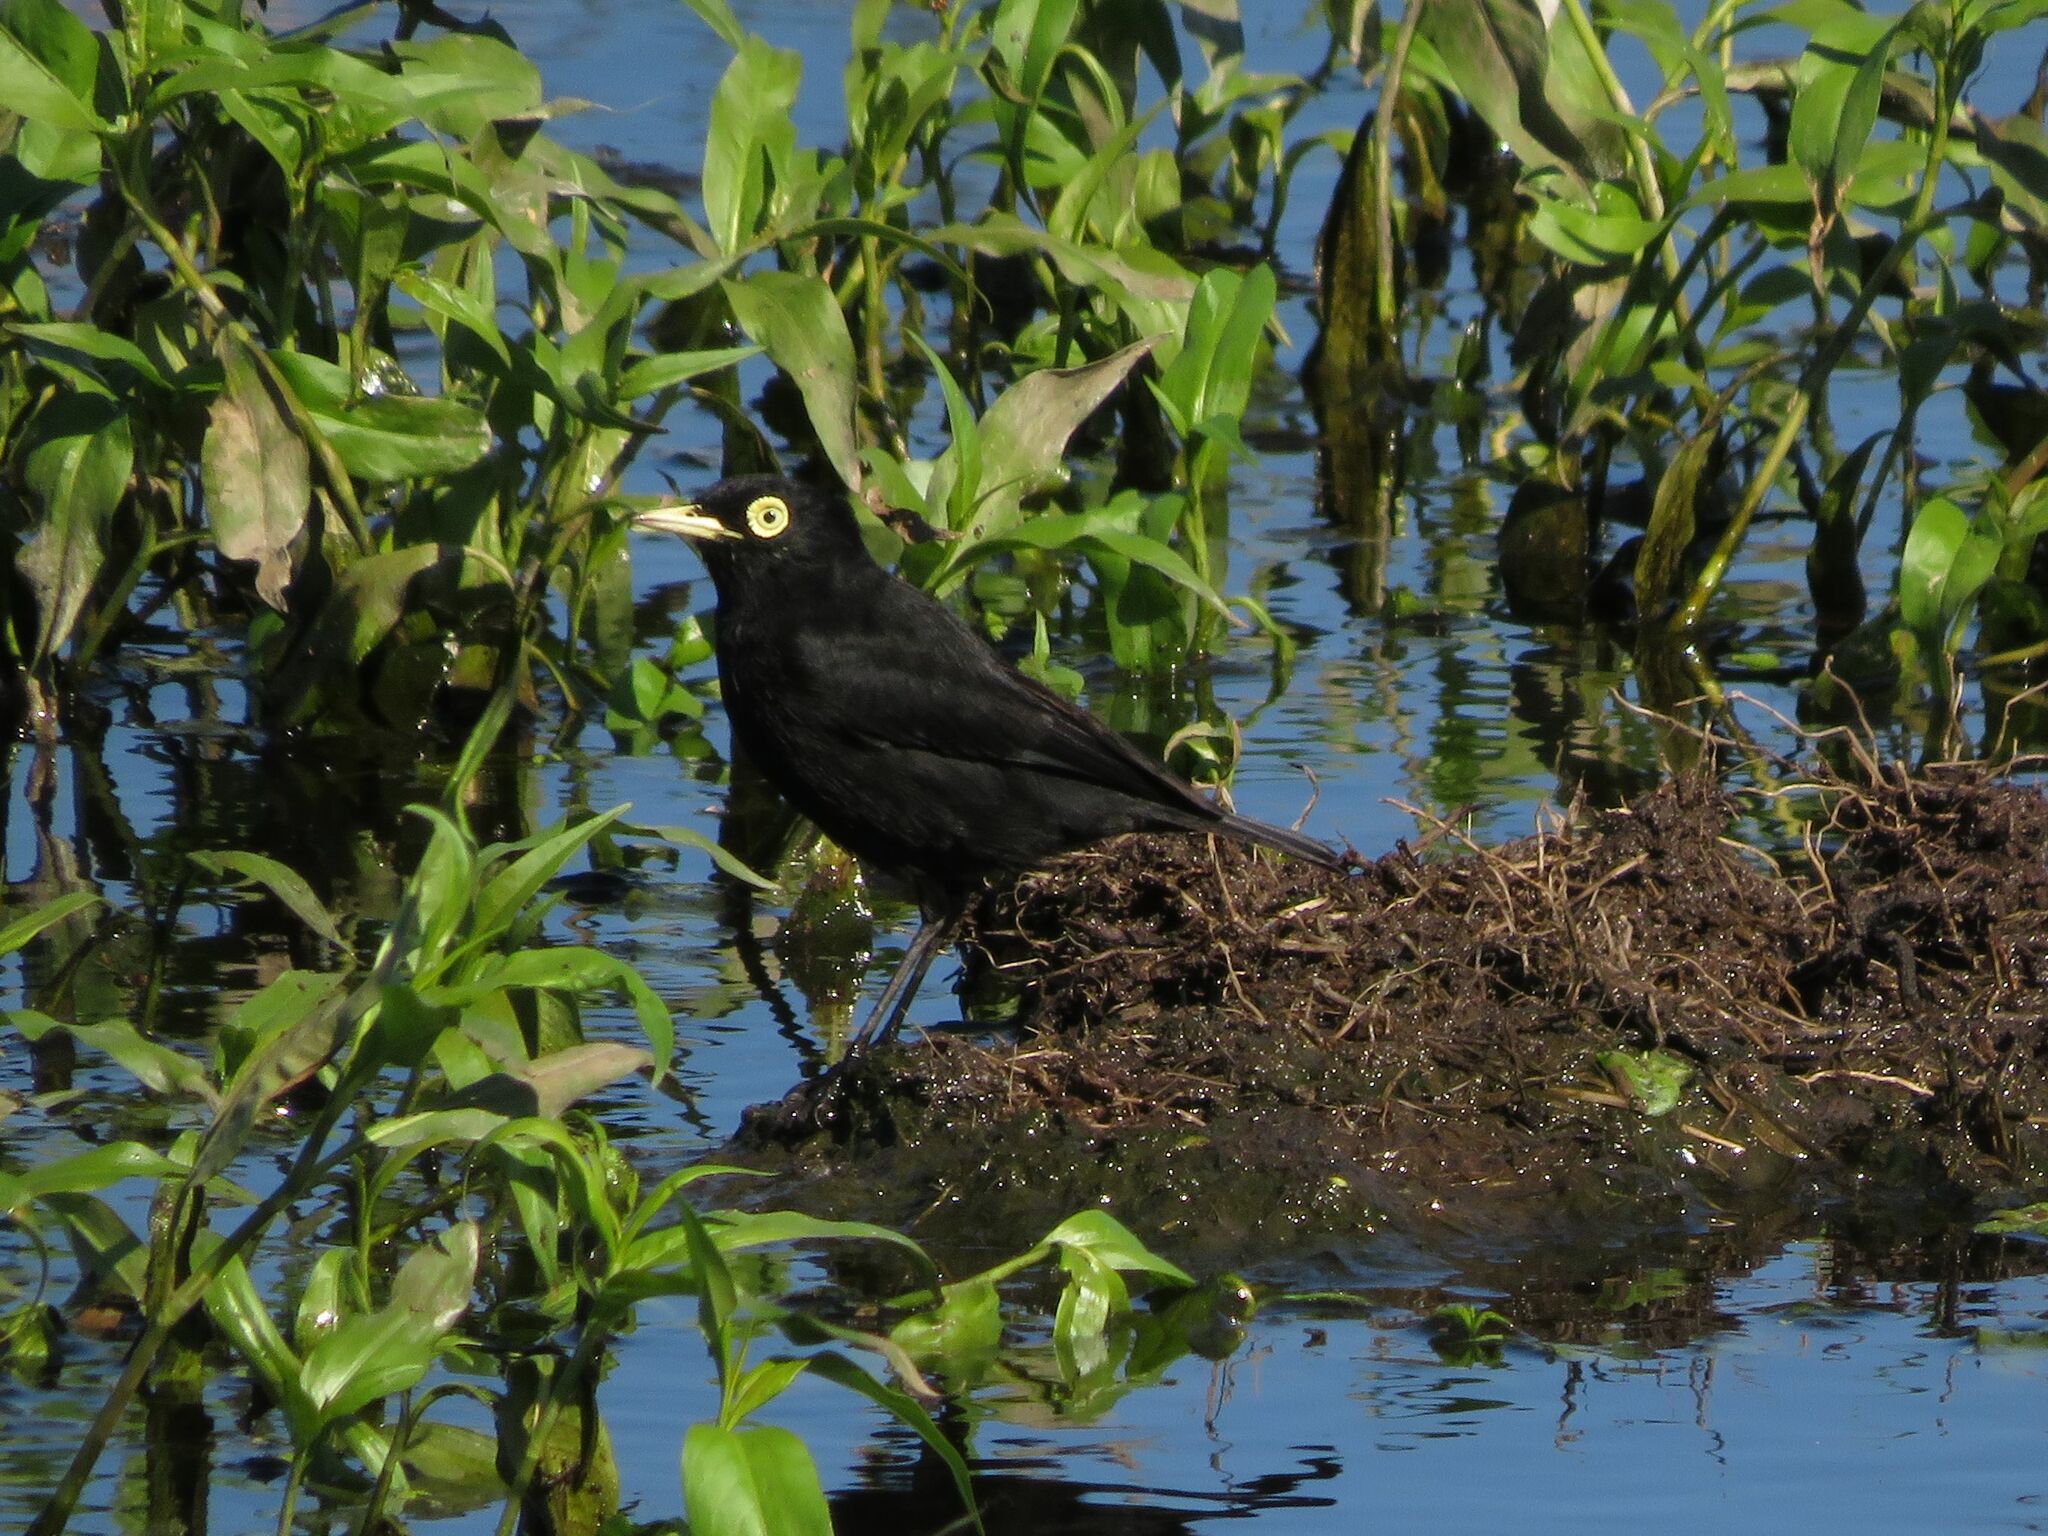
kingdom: Animalia
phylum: Chordata
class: Aves
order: Passeriformes
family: Tyrannidae
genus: Hymenops
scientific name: Hymenops perspicillatus
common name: Spectacled tyrant
